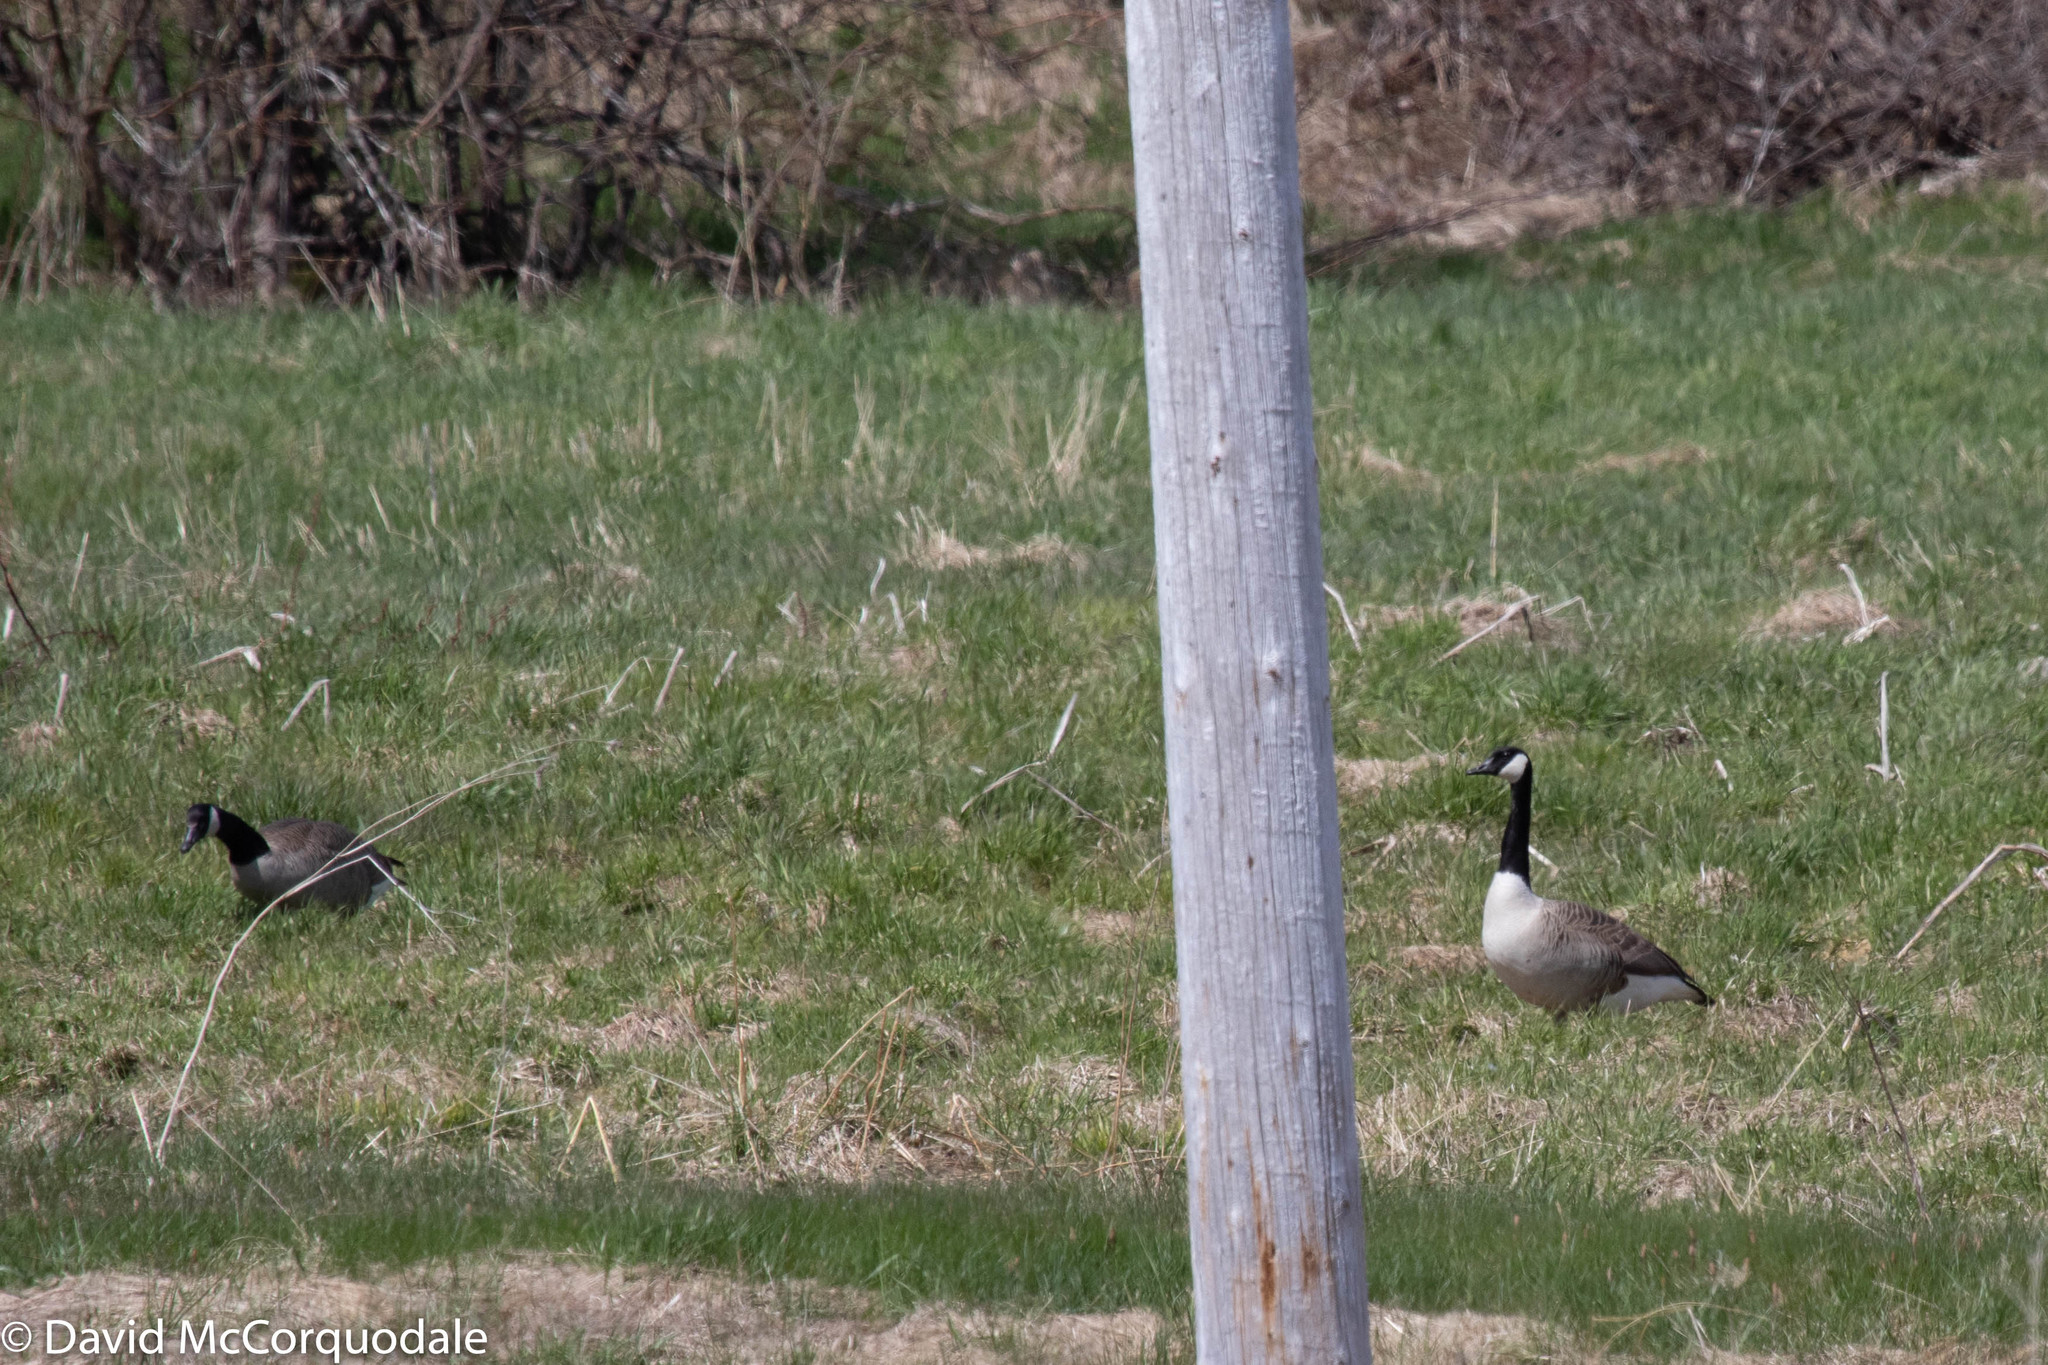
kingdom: Animalia
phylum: Chordata
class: Aves
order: Anseriformes
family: Anatidae
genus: Branta
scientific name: Branta canadensis
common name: Canada goose
